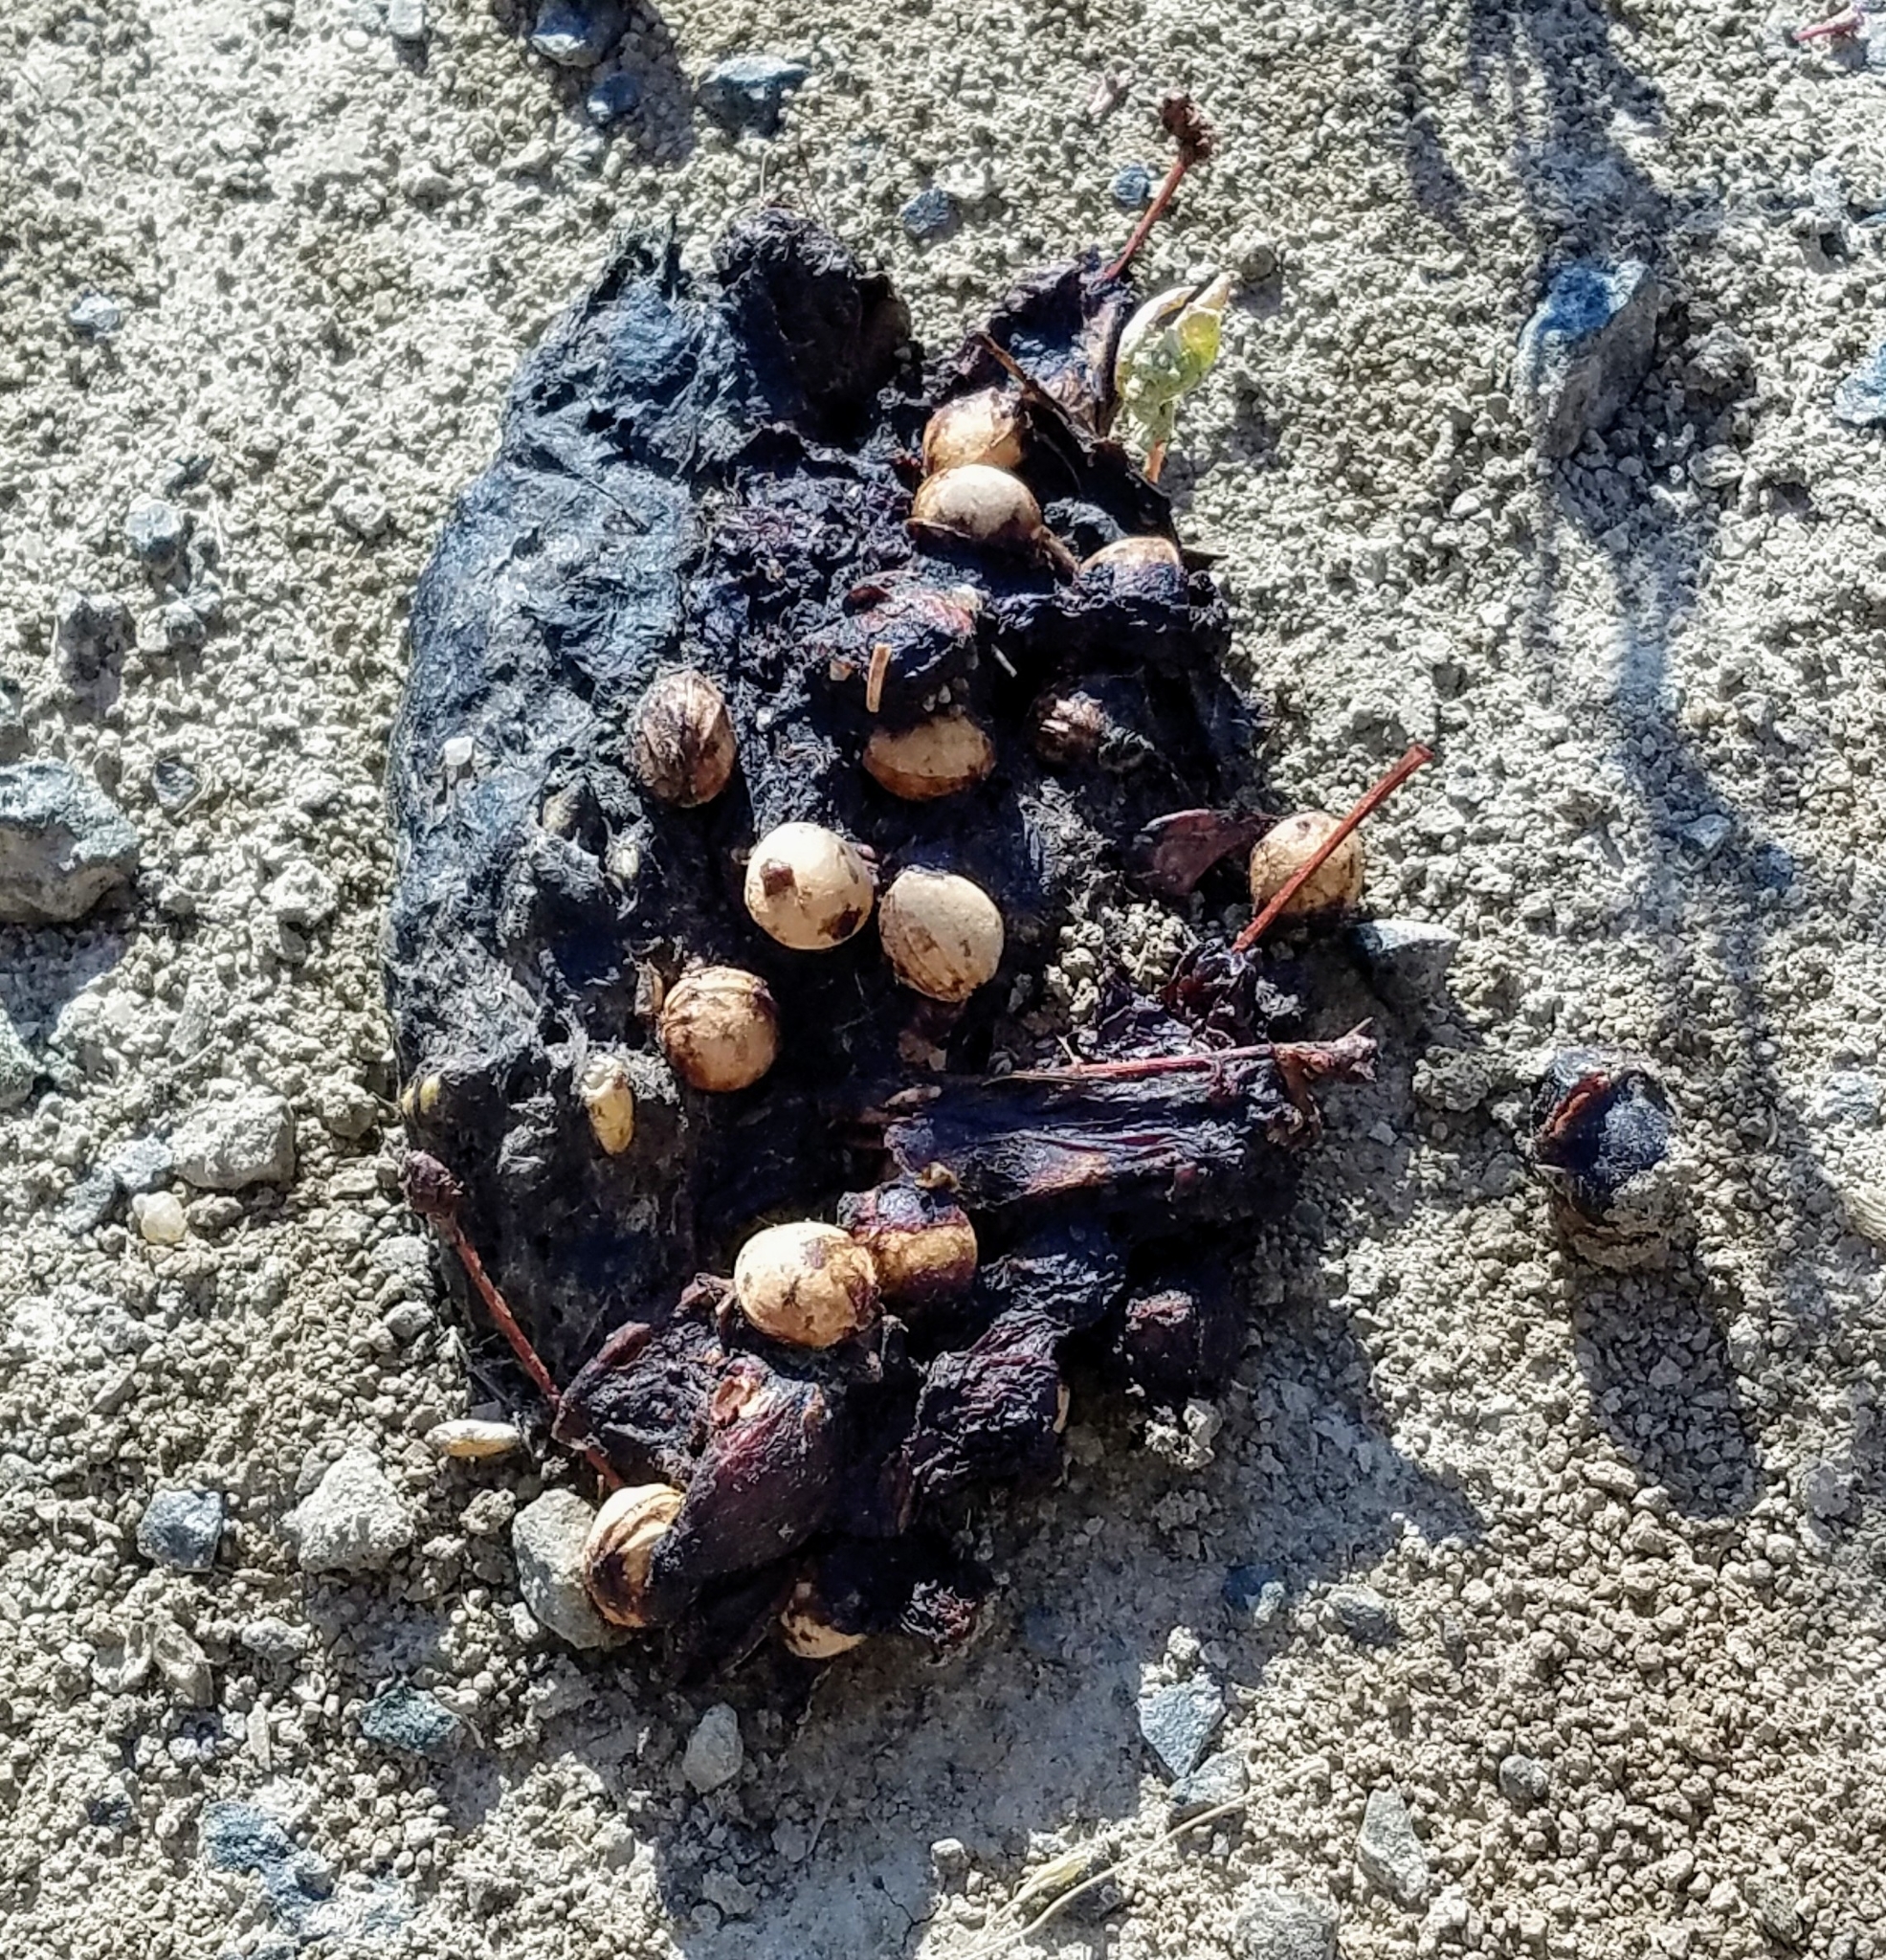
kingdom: Animalia
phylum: Chordata
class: Mammalia
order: Carnivora
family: Procyonidae
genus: Procyon
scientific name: Procyon lotor
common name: Raccoon
